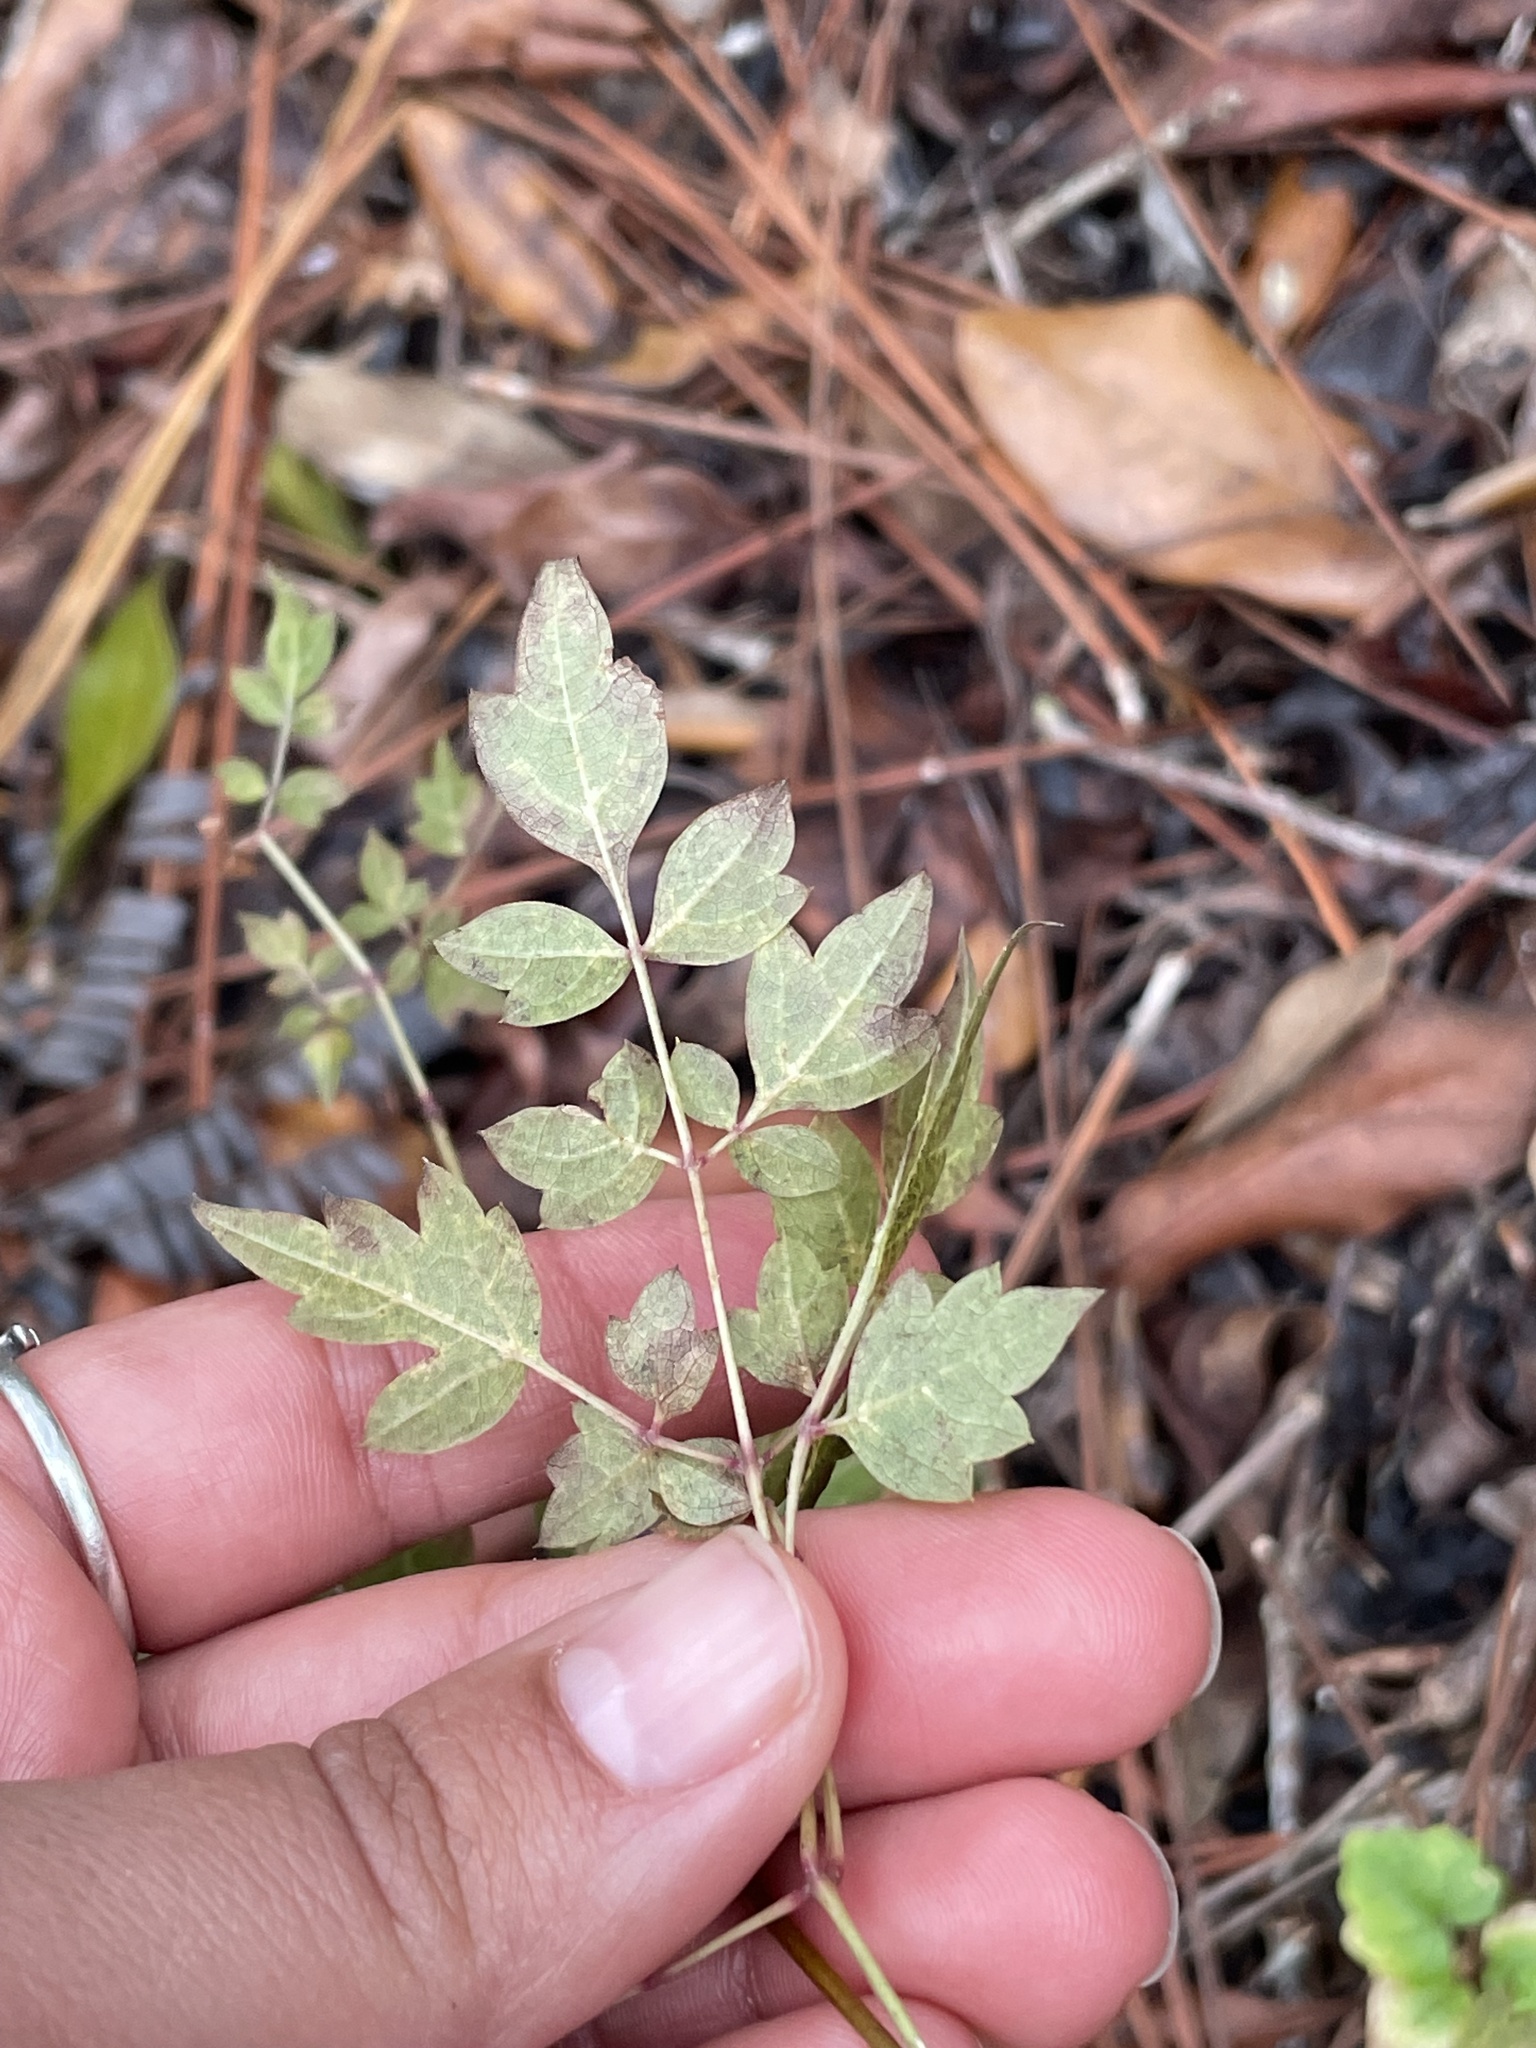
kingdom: Plantae
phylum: Tracheophyta
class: Magnoliopsida
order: Vitales
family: Vitaceae
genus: Nekemias
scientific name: Nekemias arborea
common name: Peppervine
